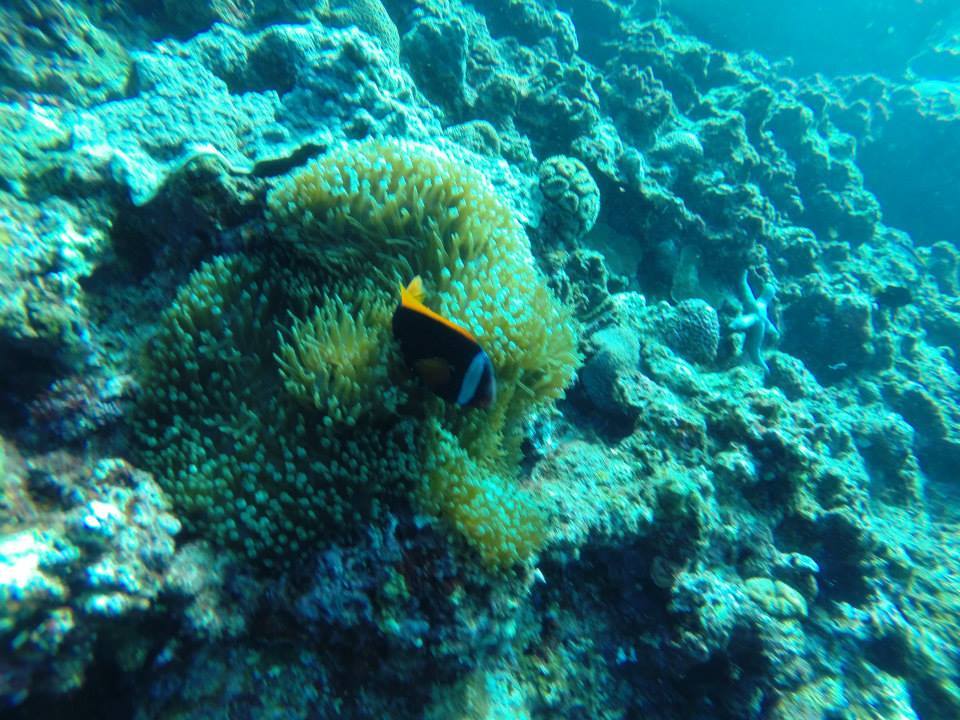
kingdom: Animalia
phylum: Chordata
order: Perciformes
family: Pomacentridae
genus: Amphiprion
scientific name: Amphiprion frenatus
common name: Tomato anemonefish
